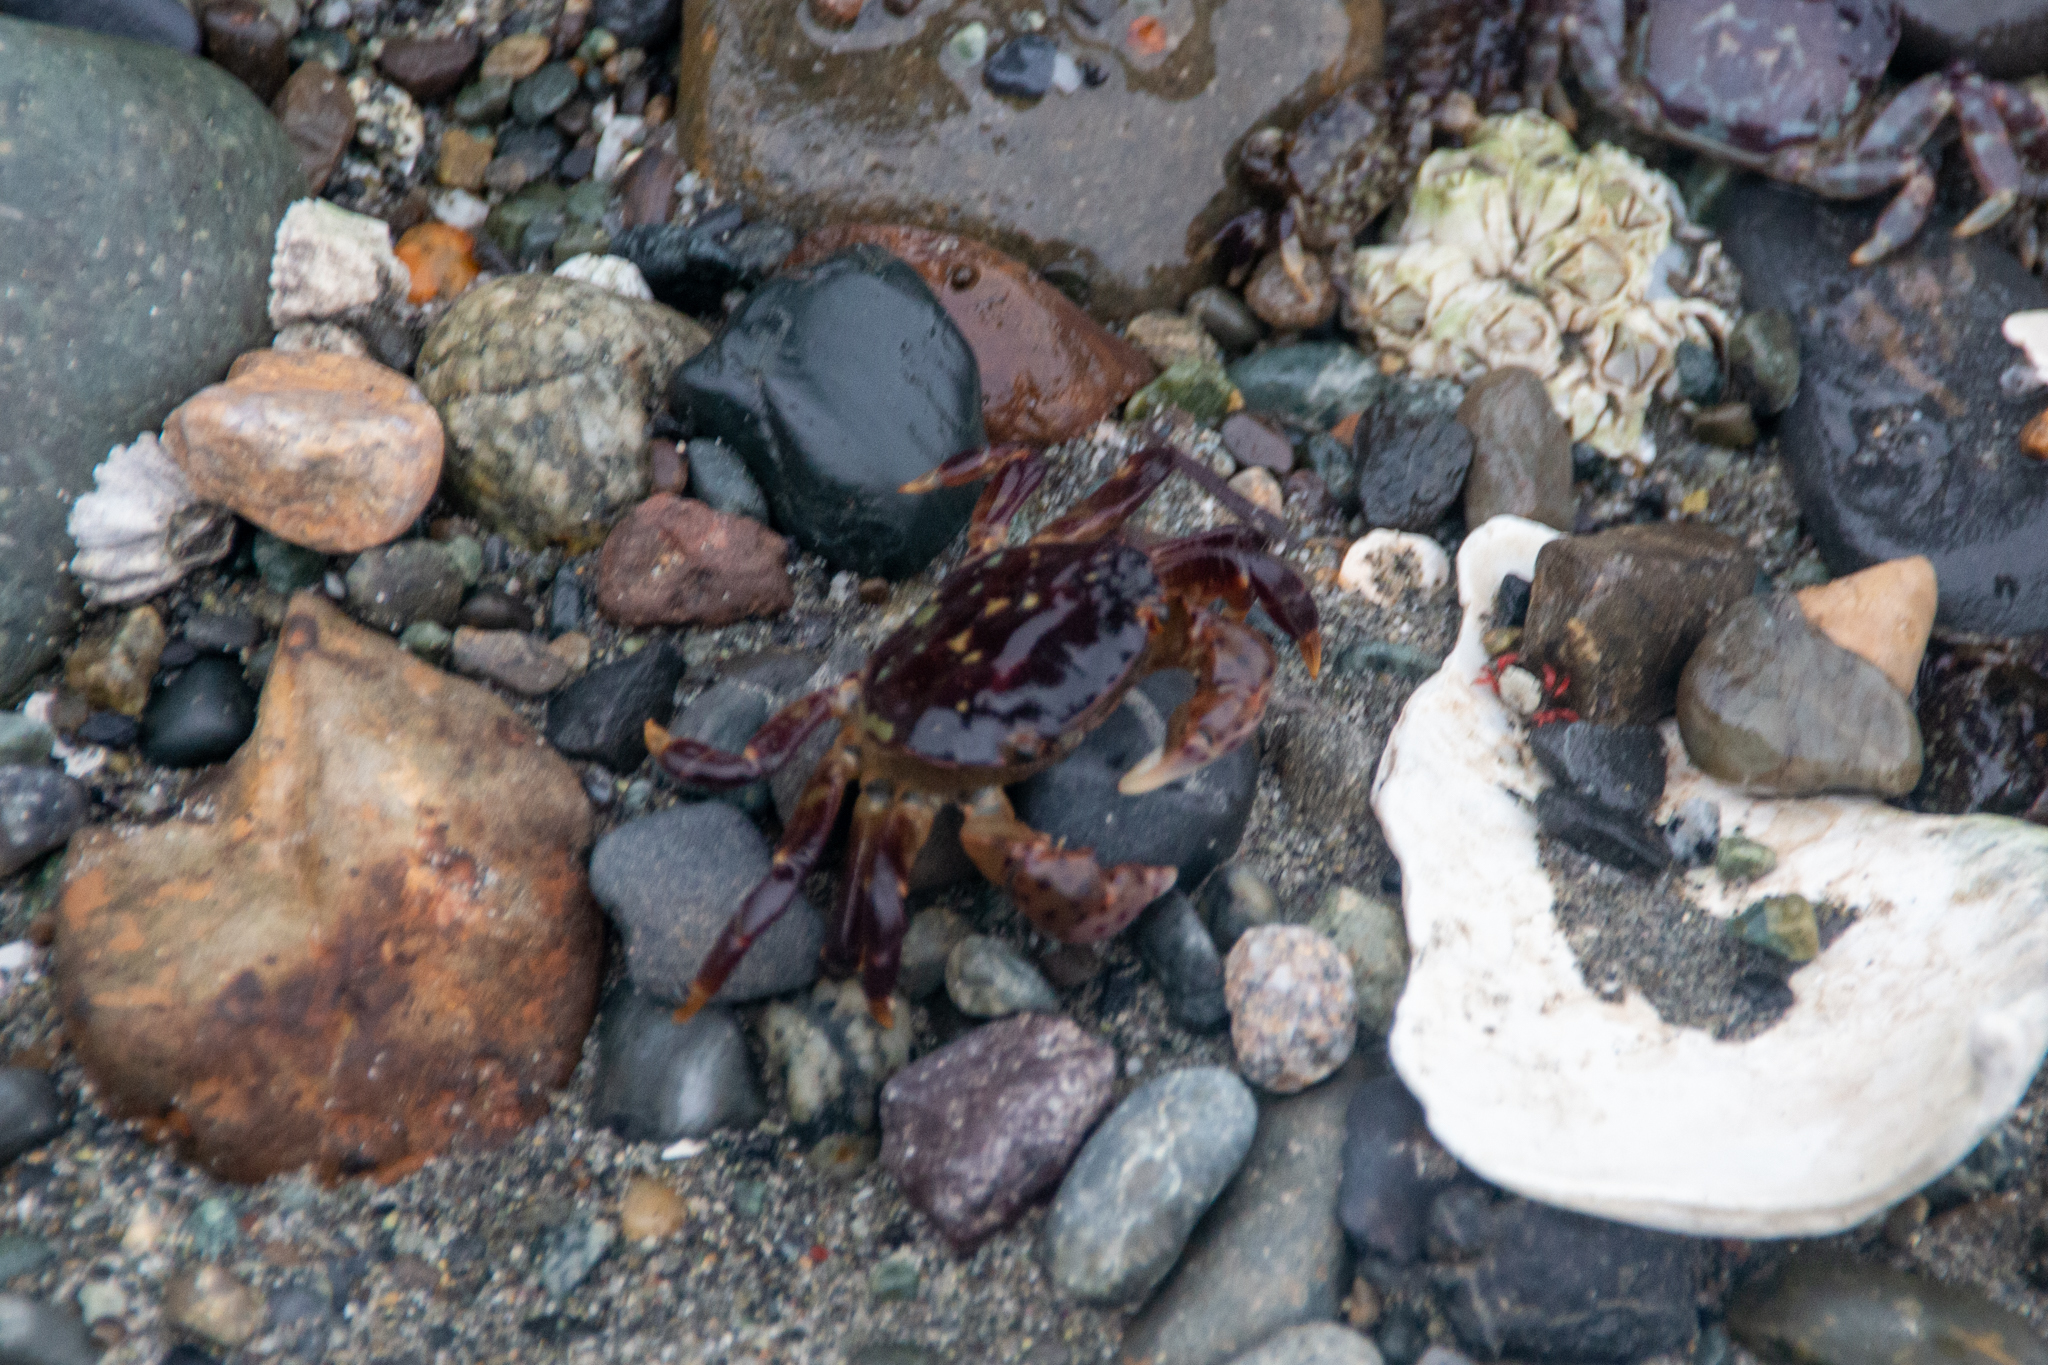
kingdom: Animalia
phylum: Arthropoda
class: Malacostraca
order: Decapoda
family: Varunidae
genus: Hemigrapsus
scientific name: Hemigrapsus nudus
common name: Purple shore crab
